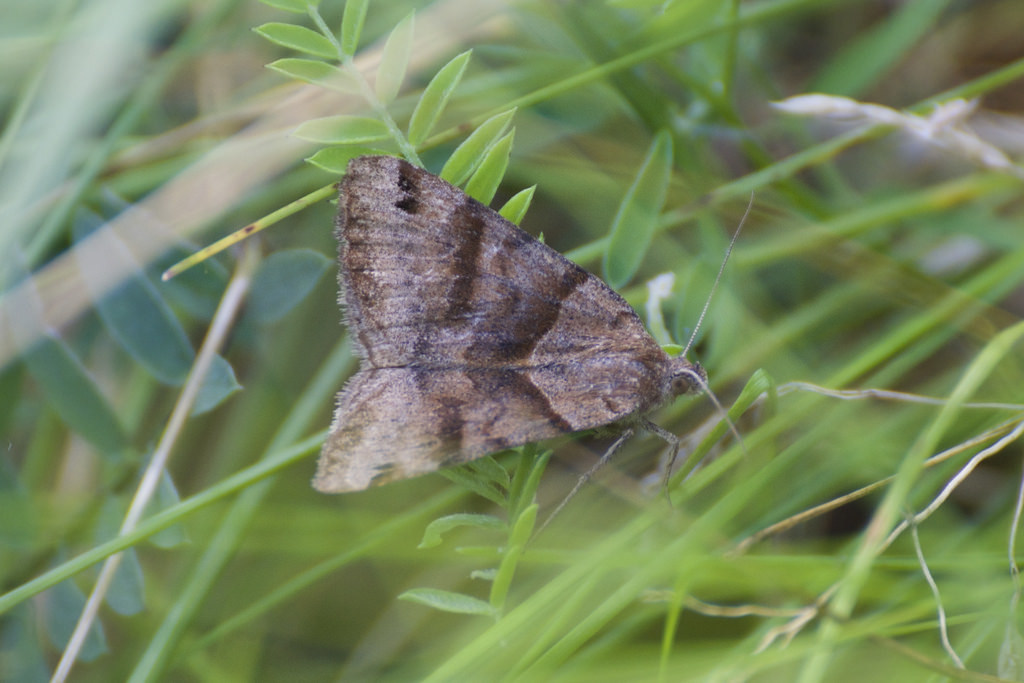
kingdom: Animalia
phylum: Arthropoda
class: Insecta
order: Lepidoptera
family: Erebidae
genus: Caenurgina
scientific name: Caenurgina crassiuscula
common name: Double-barred
